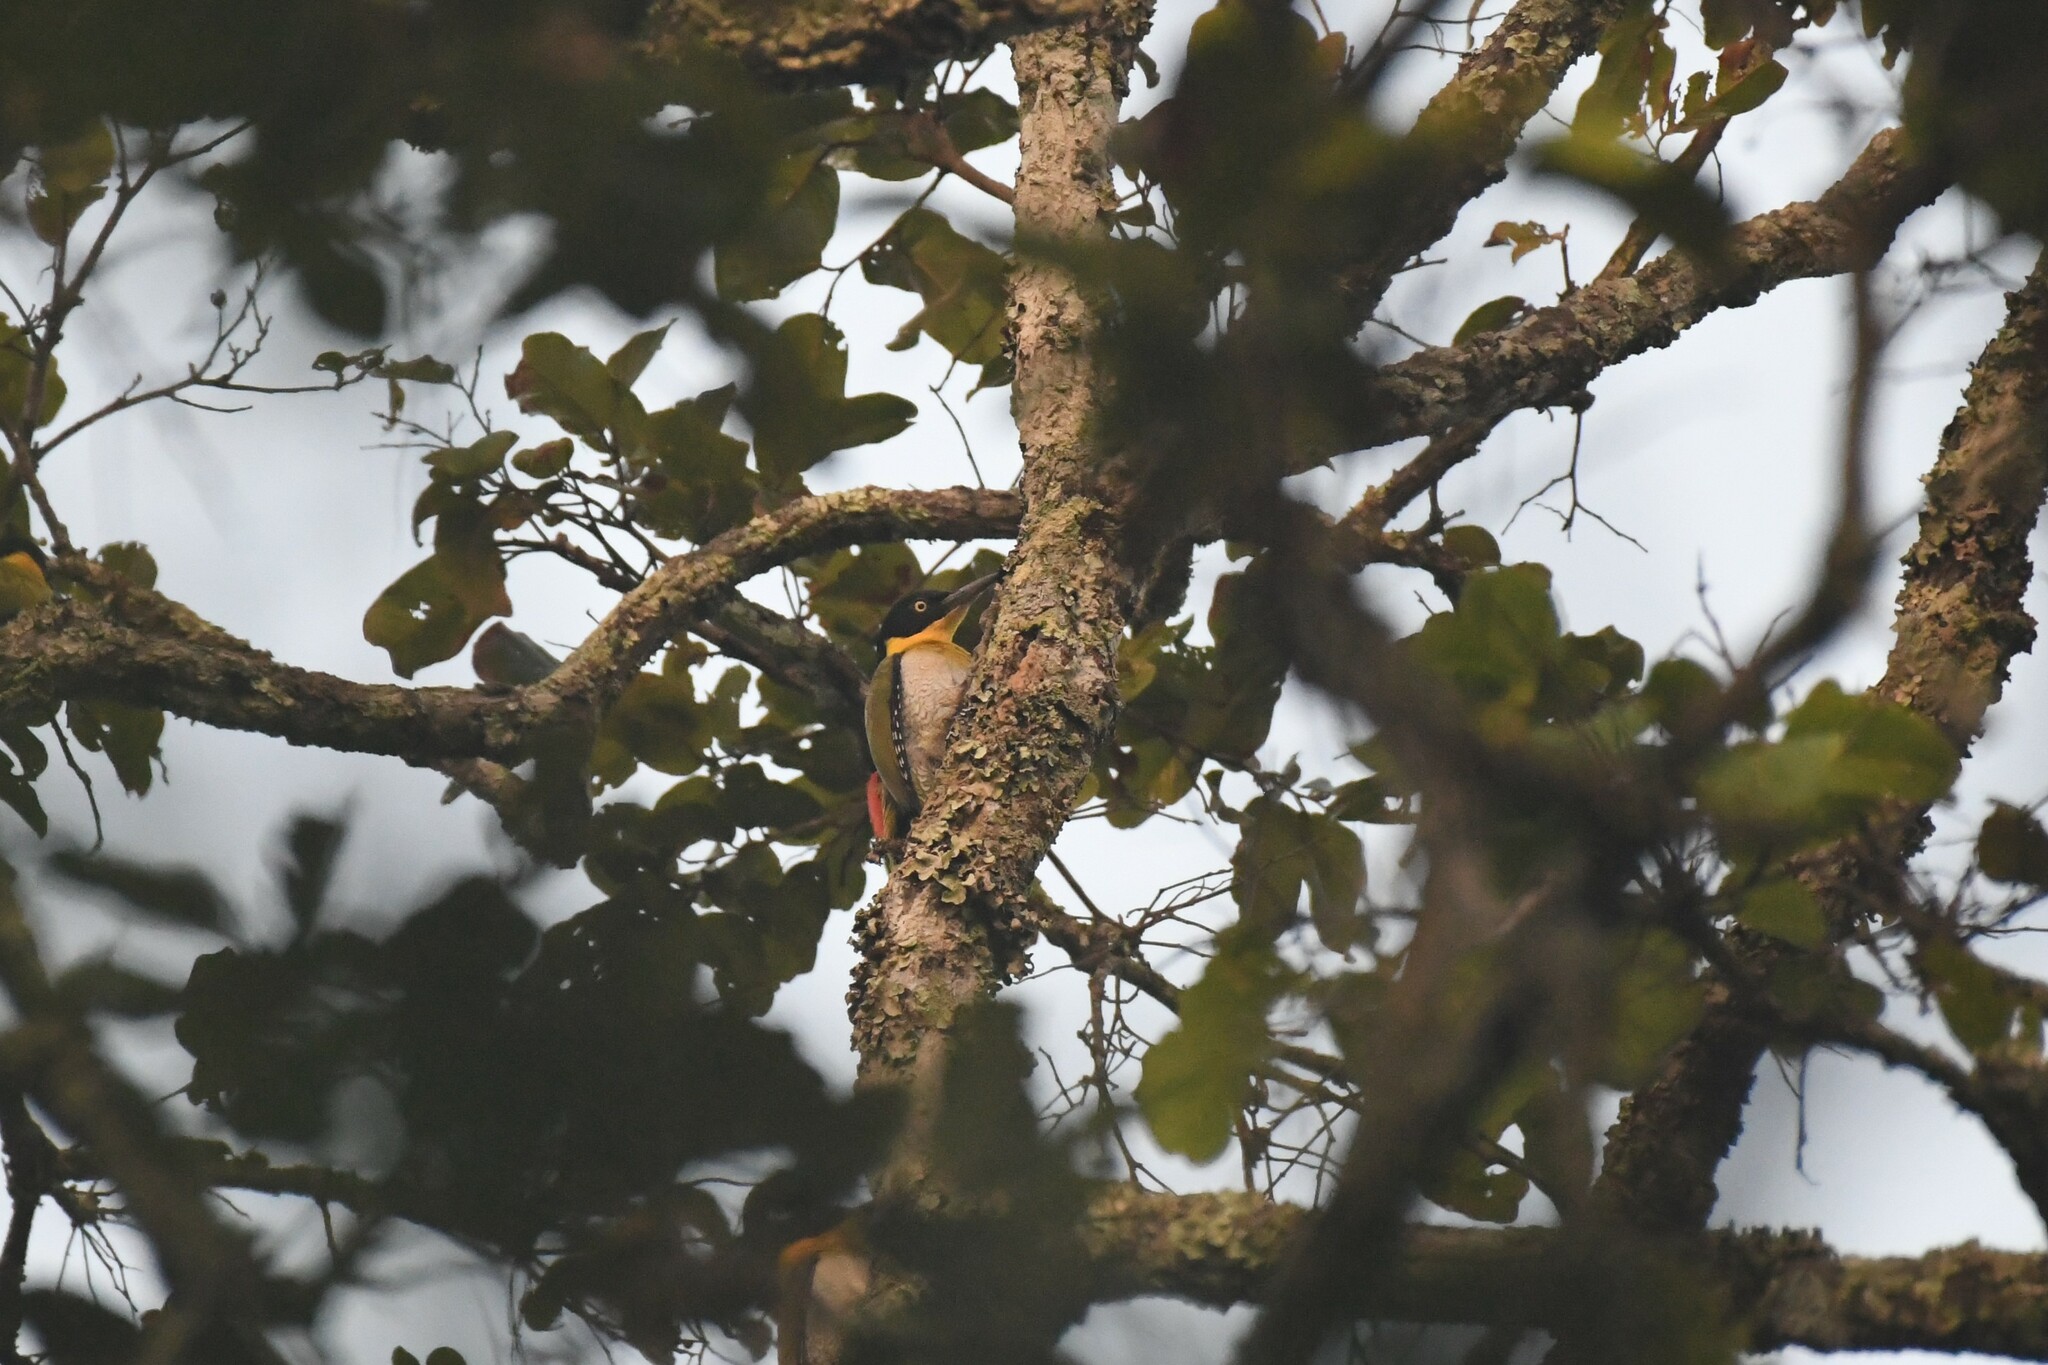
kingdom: Animalia
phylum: Chordata
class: Aves
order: Piciformes
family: Picidae
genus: Picus
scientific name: Picus erythropygius
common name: Black-headed woodpecker
